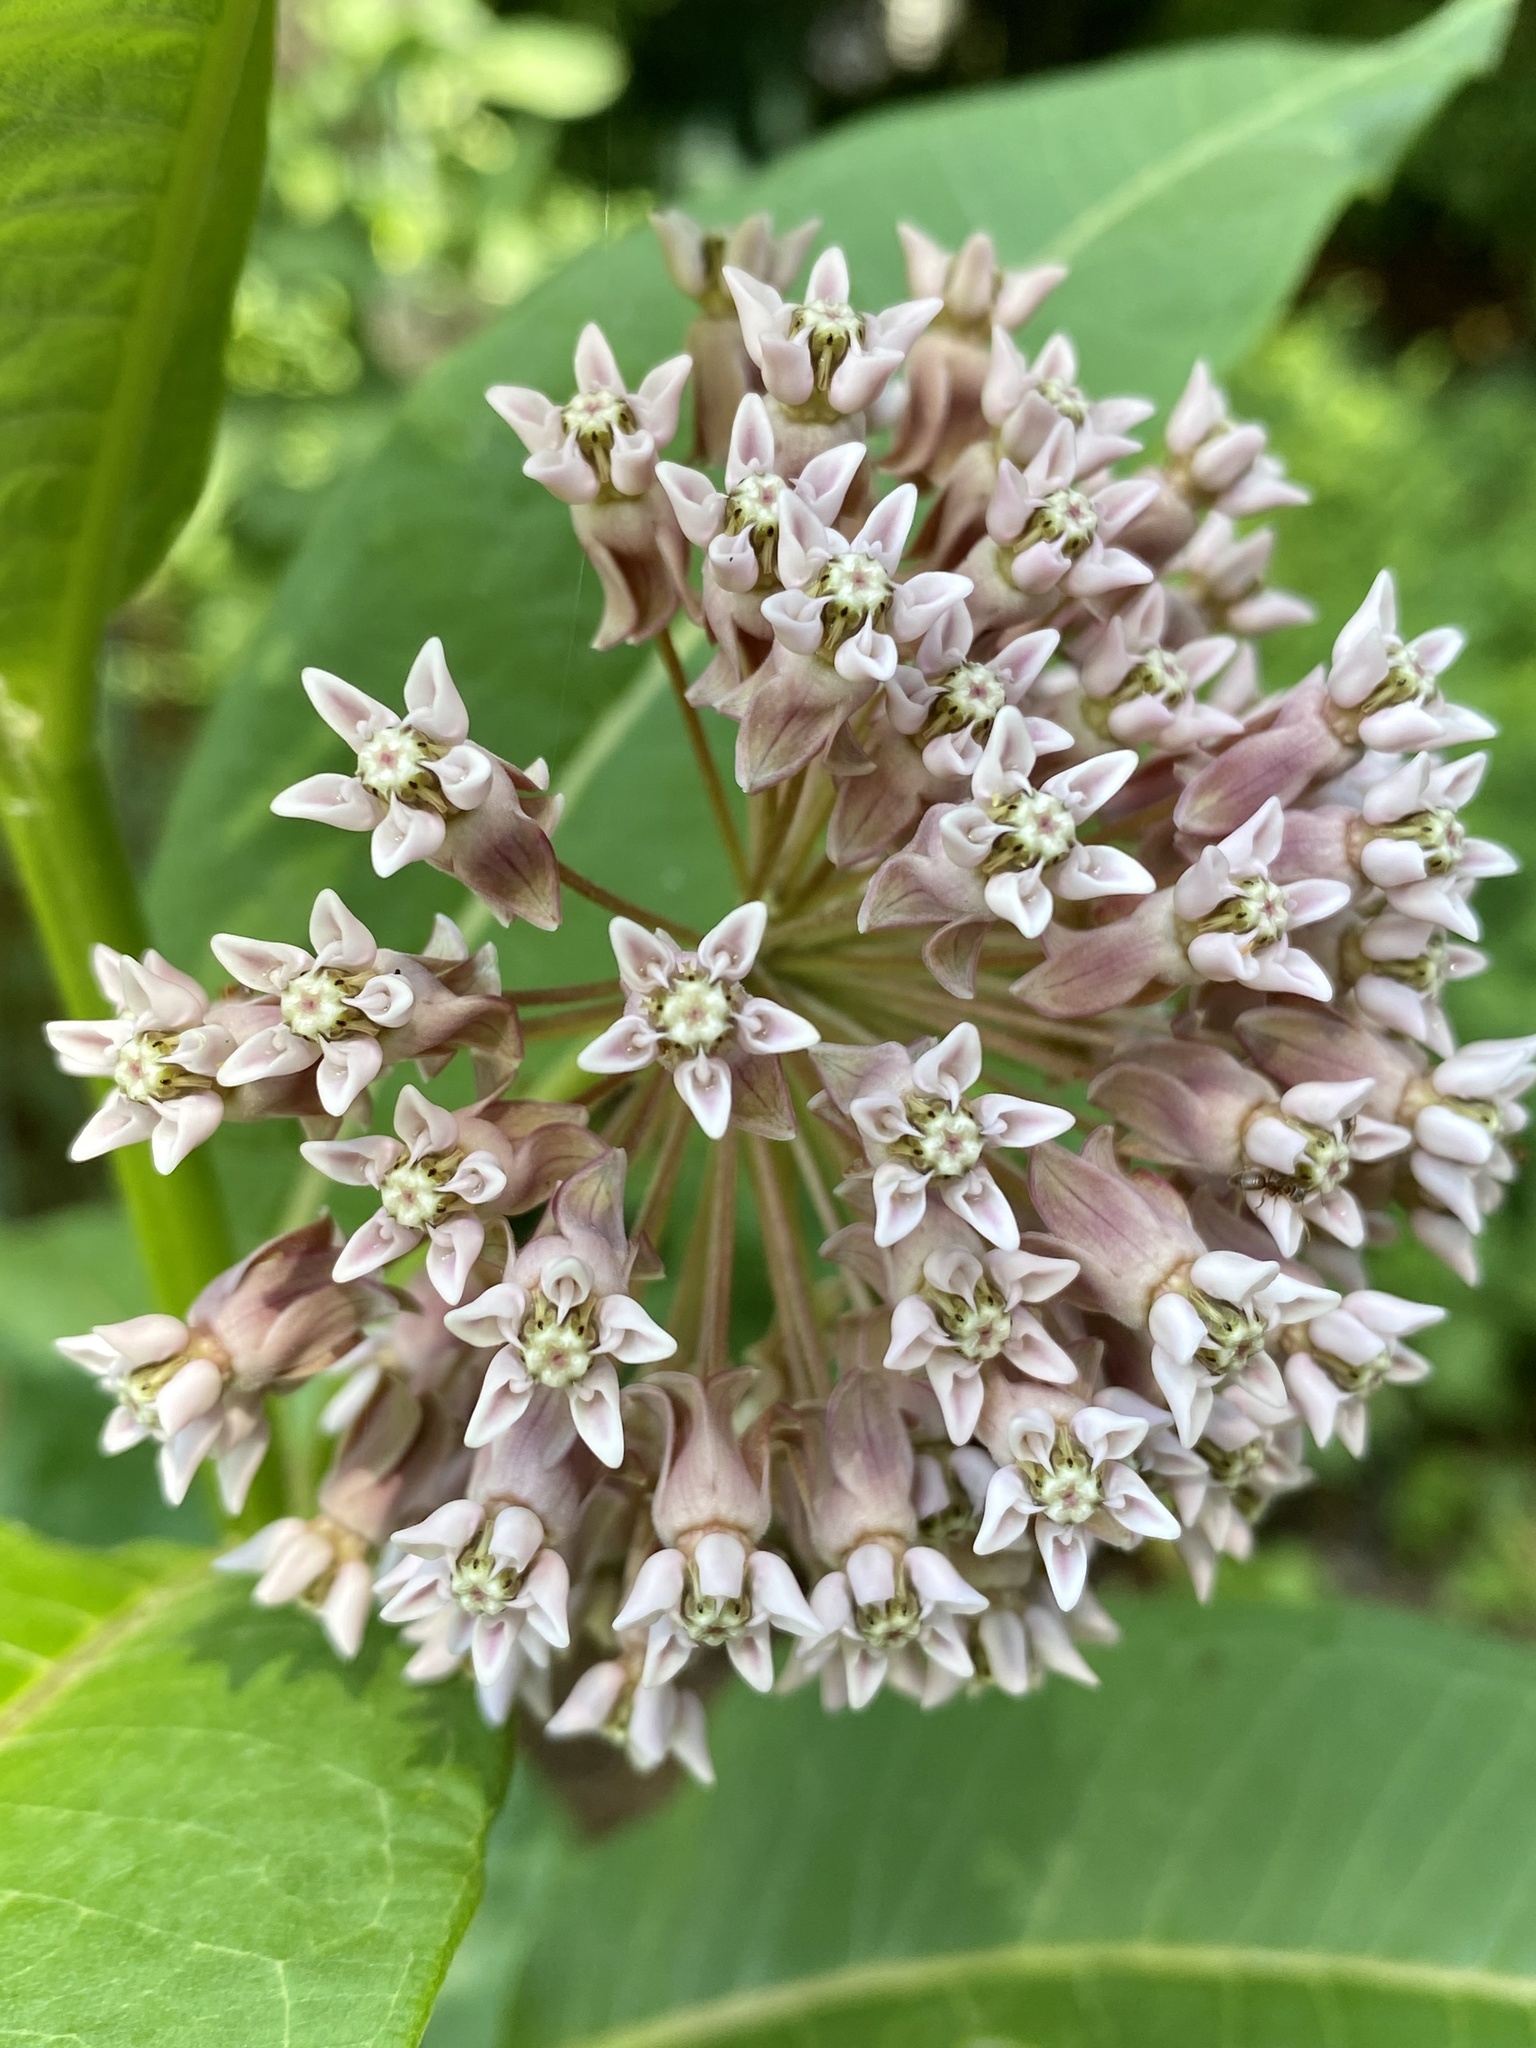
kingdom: Plantae
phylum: Tracheophyta
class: Magnoliopsida
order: Gentianales
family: Apocynaceae
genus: Asclepias
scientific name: Asclepias syriaca
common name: Common milkweed
